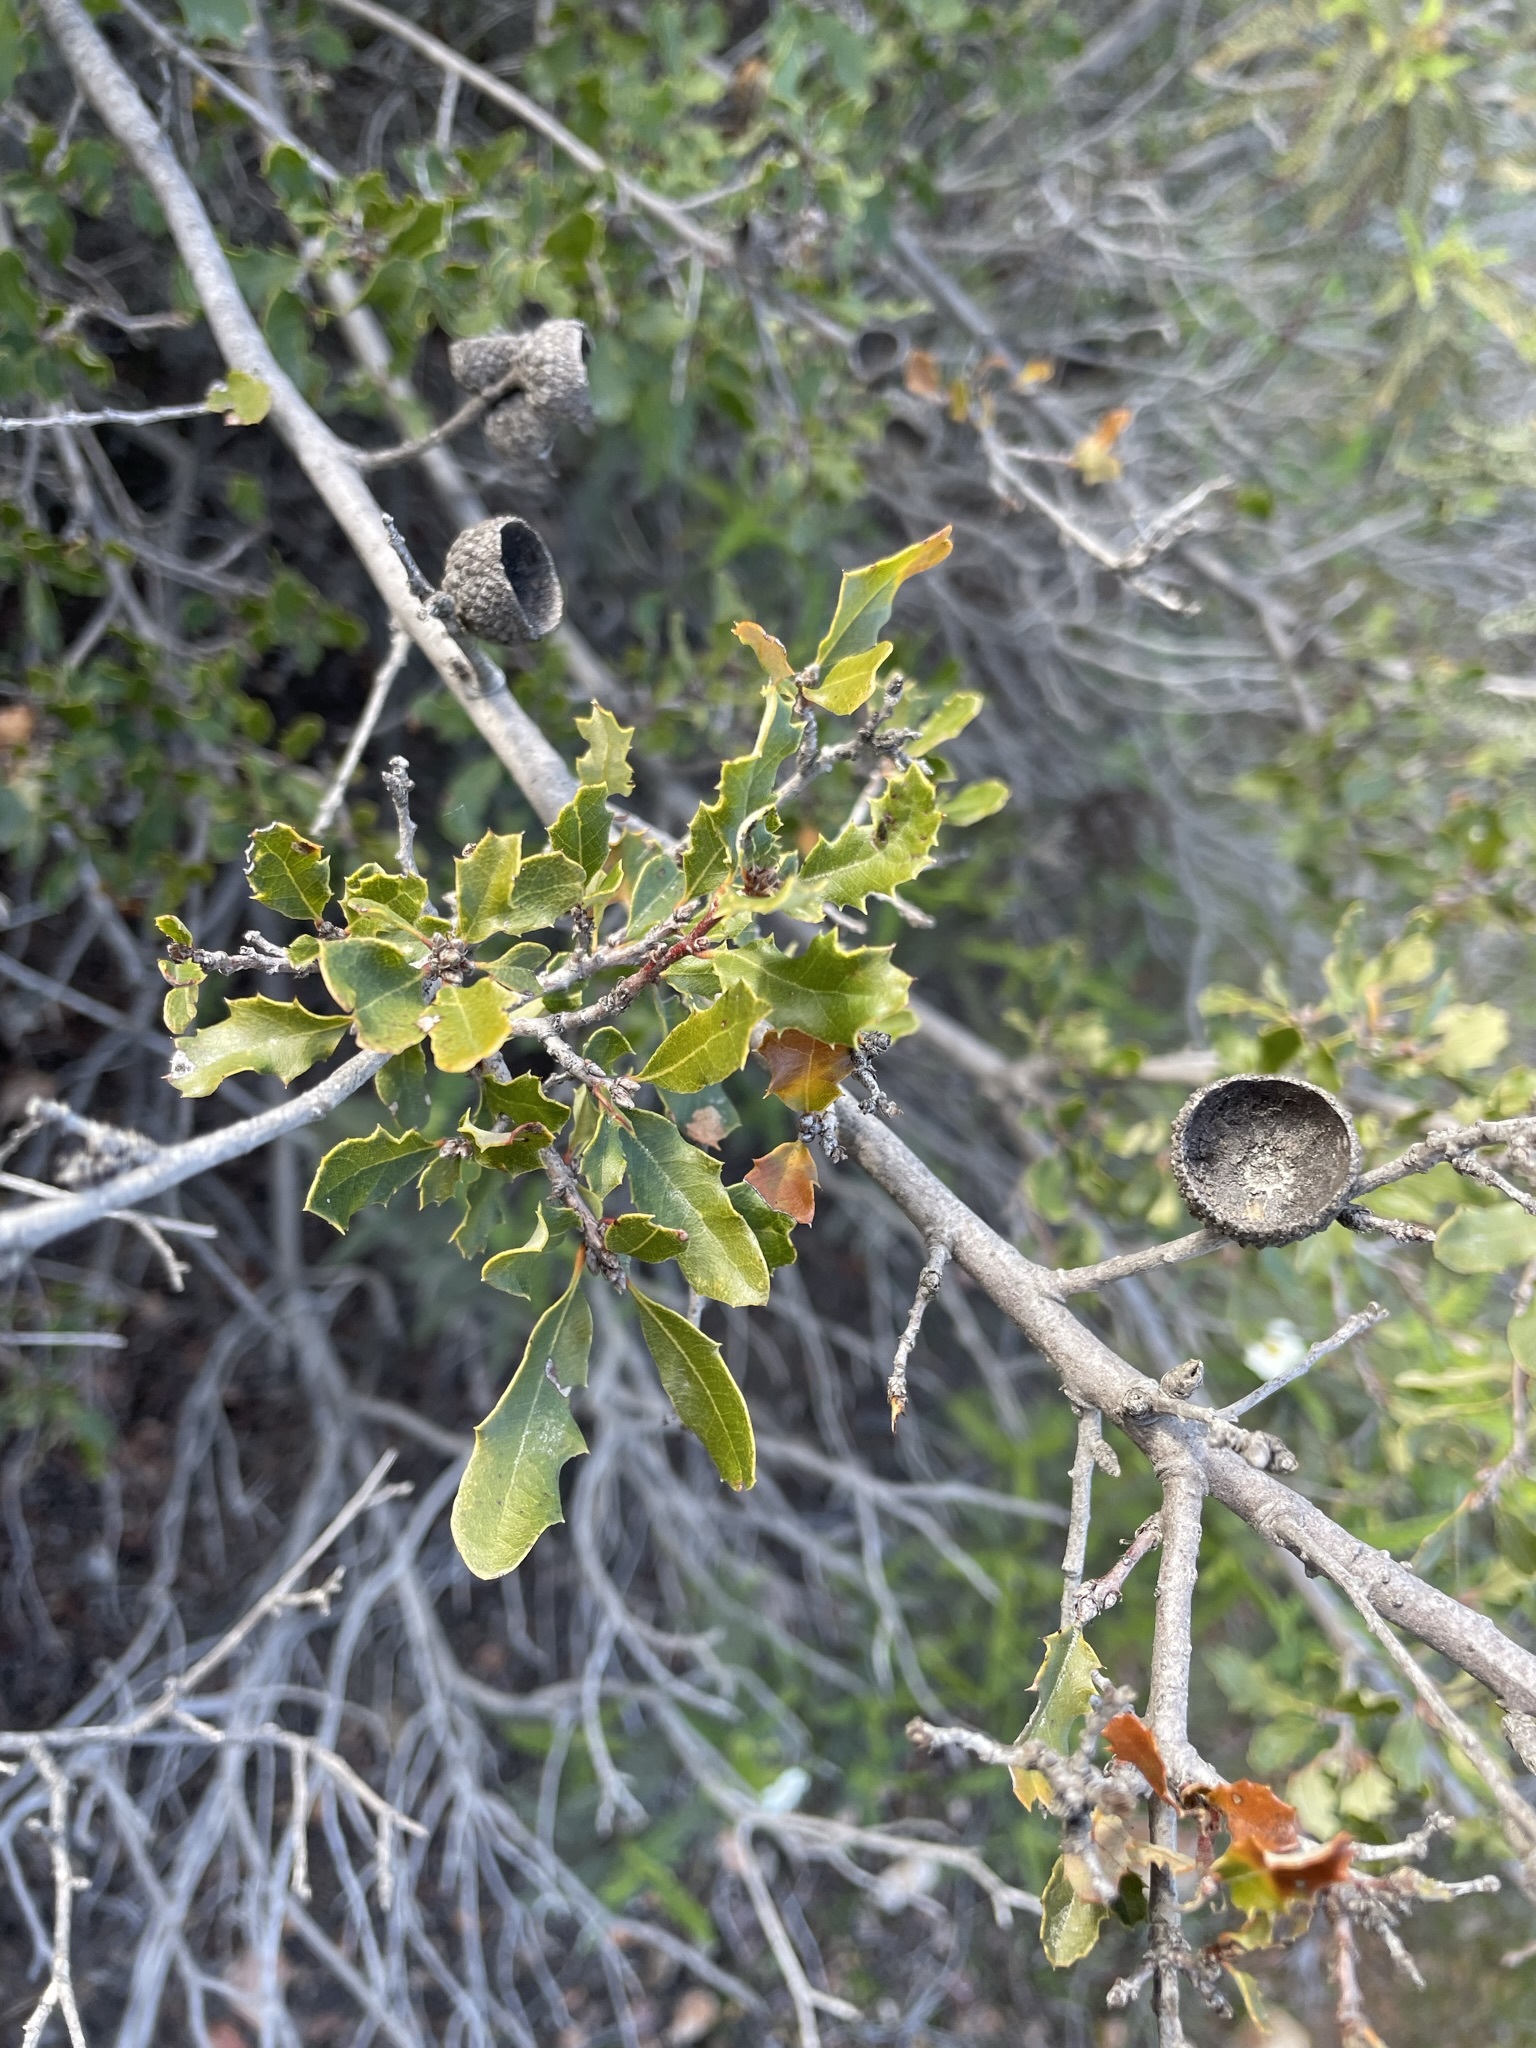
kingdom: Plantae
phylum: Tracheophyta
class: Magnoliopsida
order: Fagales
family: Fagaceae
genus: Quercus
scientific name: Quercus acutidens
